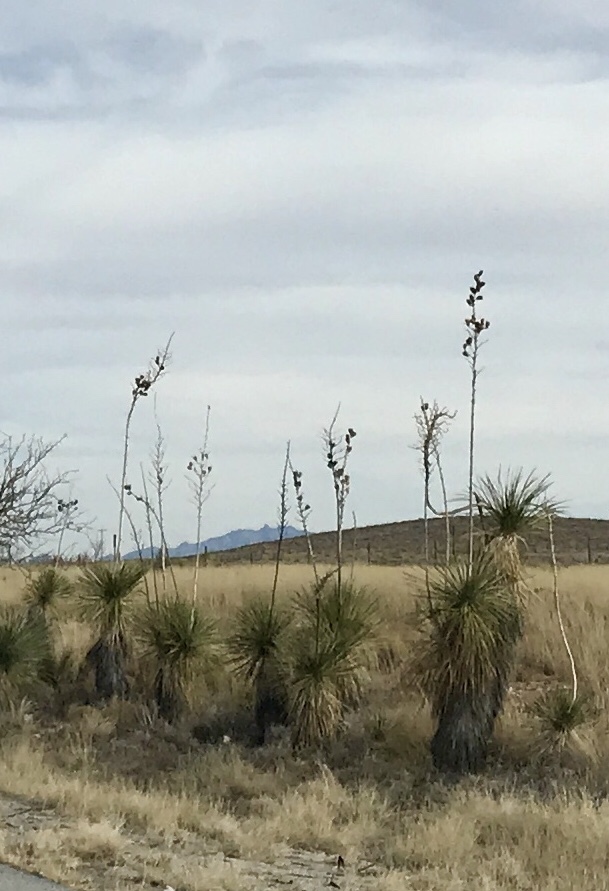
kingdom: Plantae
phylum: Tracheophyta
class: Liliopsida
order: Asparagales
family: Asparagaceae
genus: Yucca
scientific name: Yucca elata
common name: Palmella
